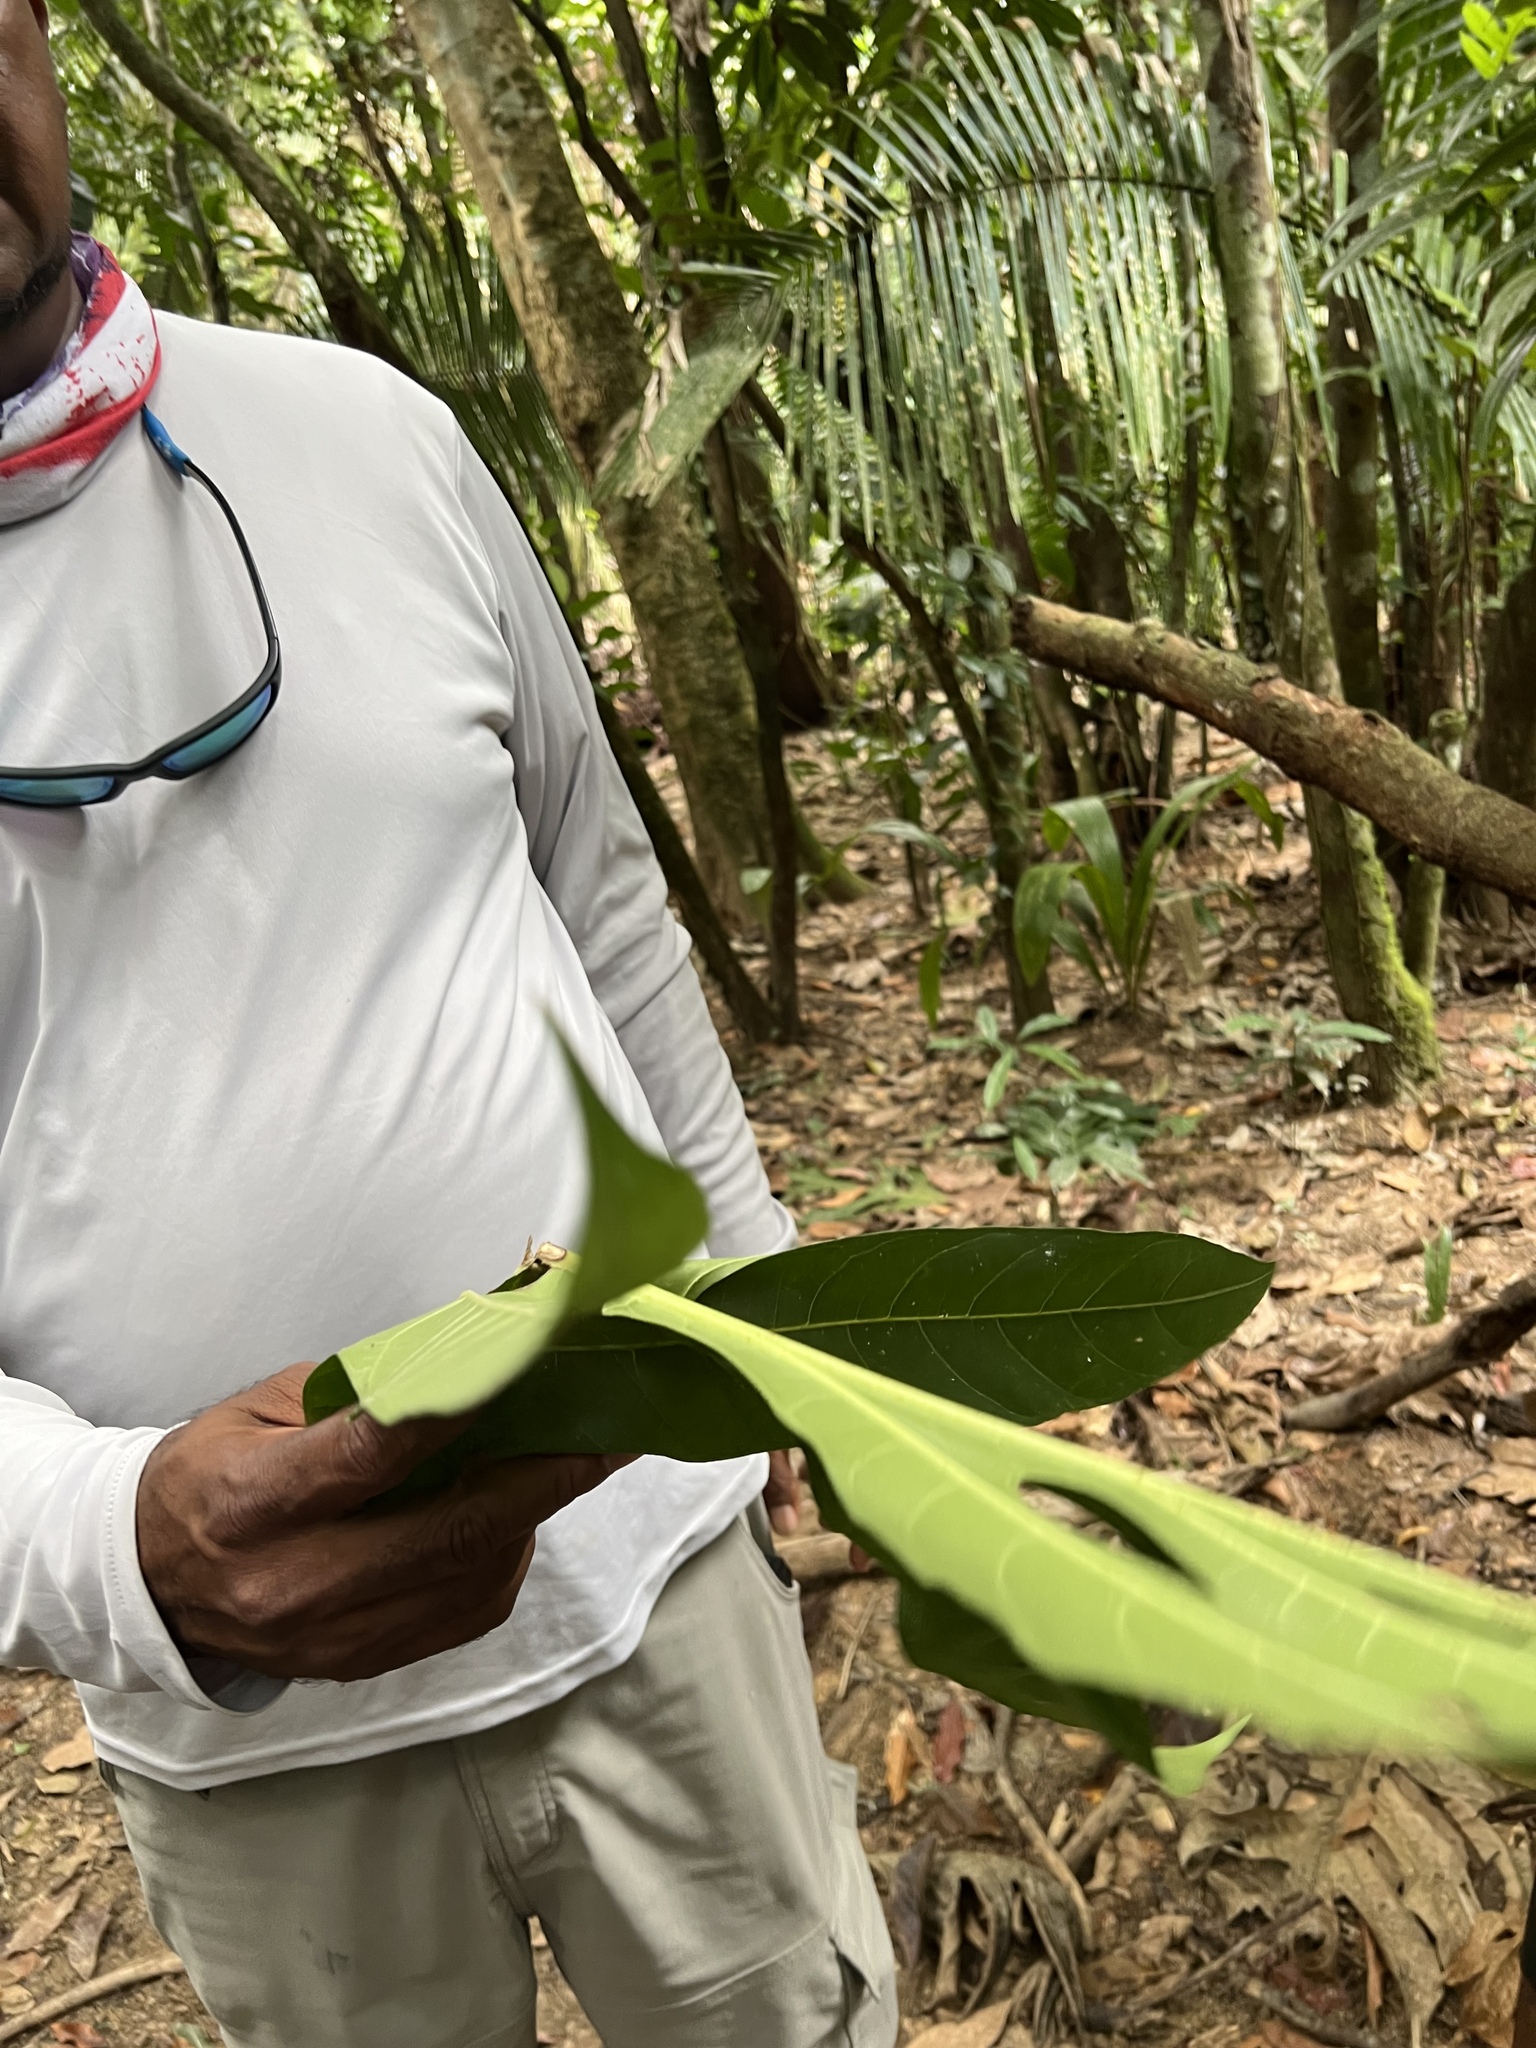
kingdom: Plantae
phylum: Tracheophyta
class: Magnoliopsida
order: Rosales
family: Moraceae
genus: Artocarpus
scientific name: Artocarpus altilis
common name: Breadfruit
